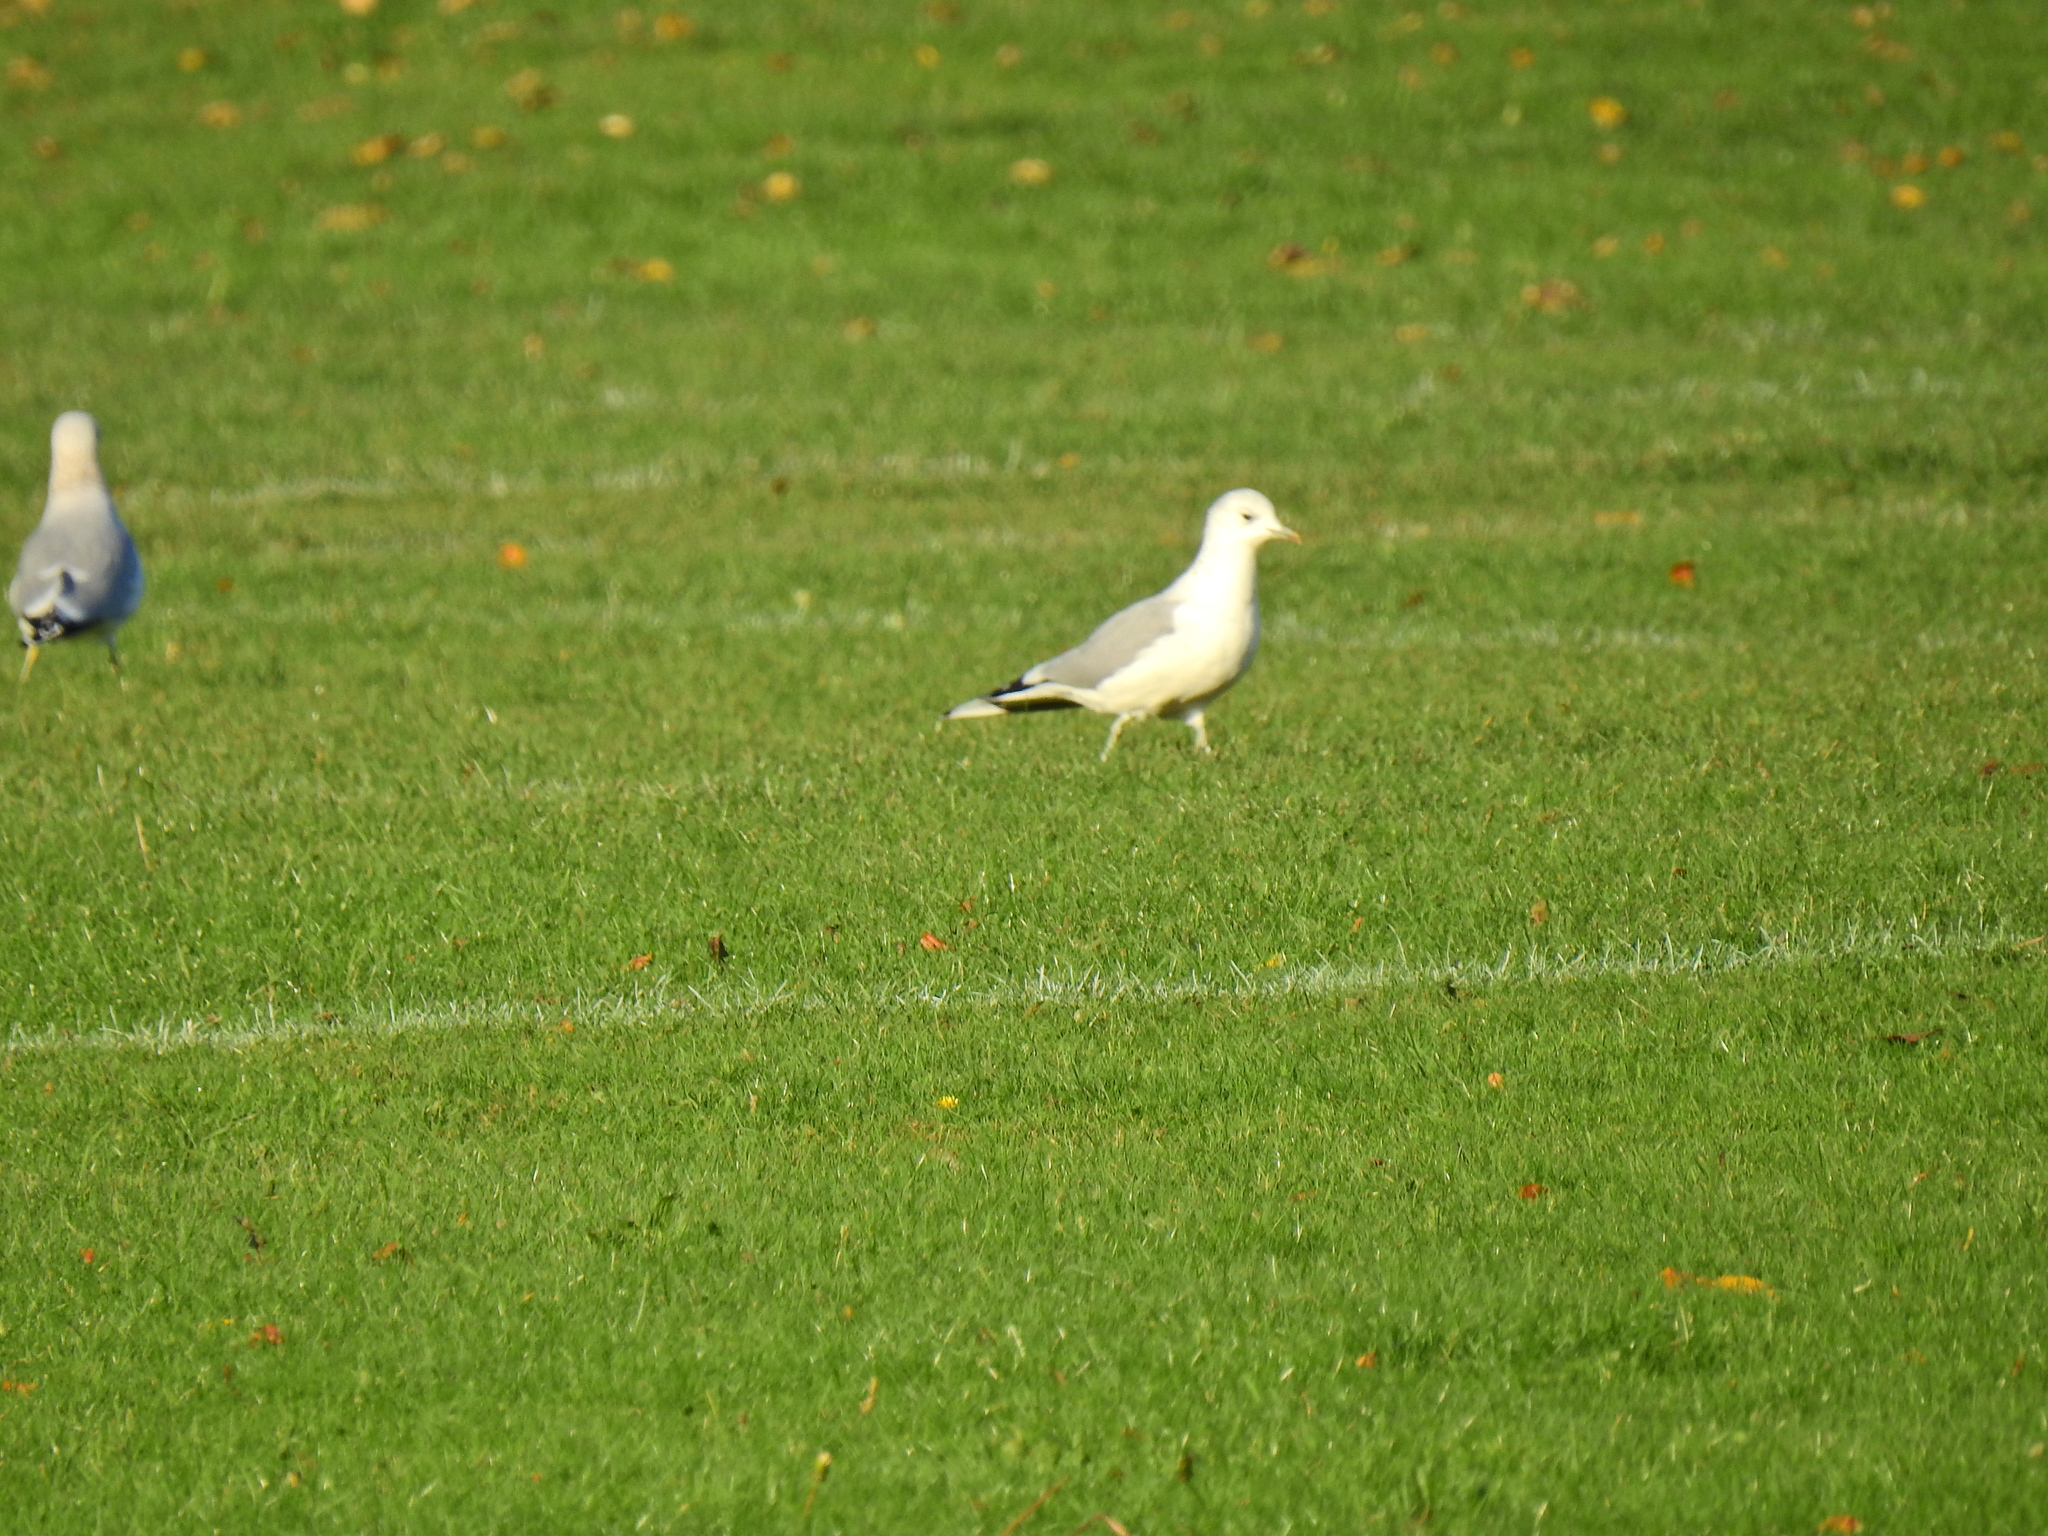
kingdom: Animalia
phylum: Chordata
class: Aves
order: Charadriiformes
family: Laridae
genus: Larus
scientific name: Larus canus
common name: Mew gull
